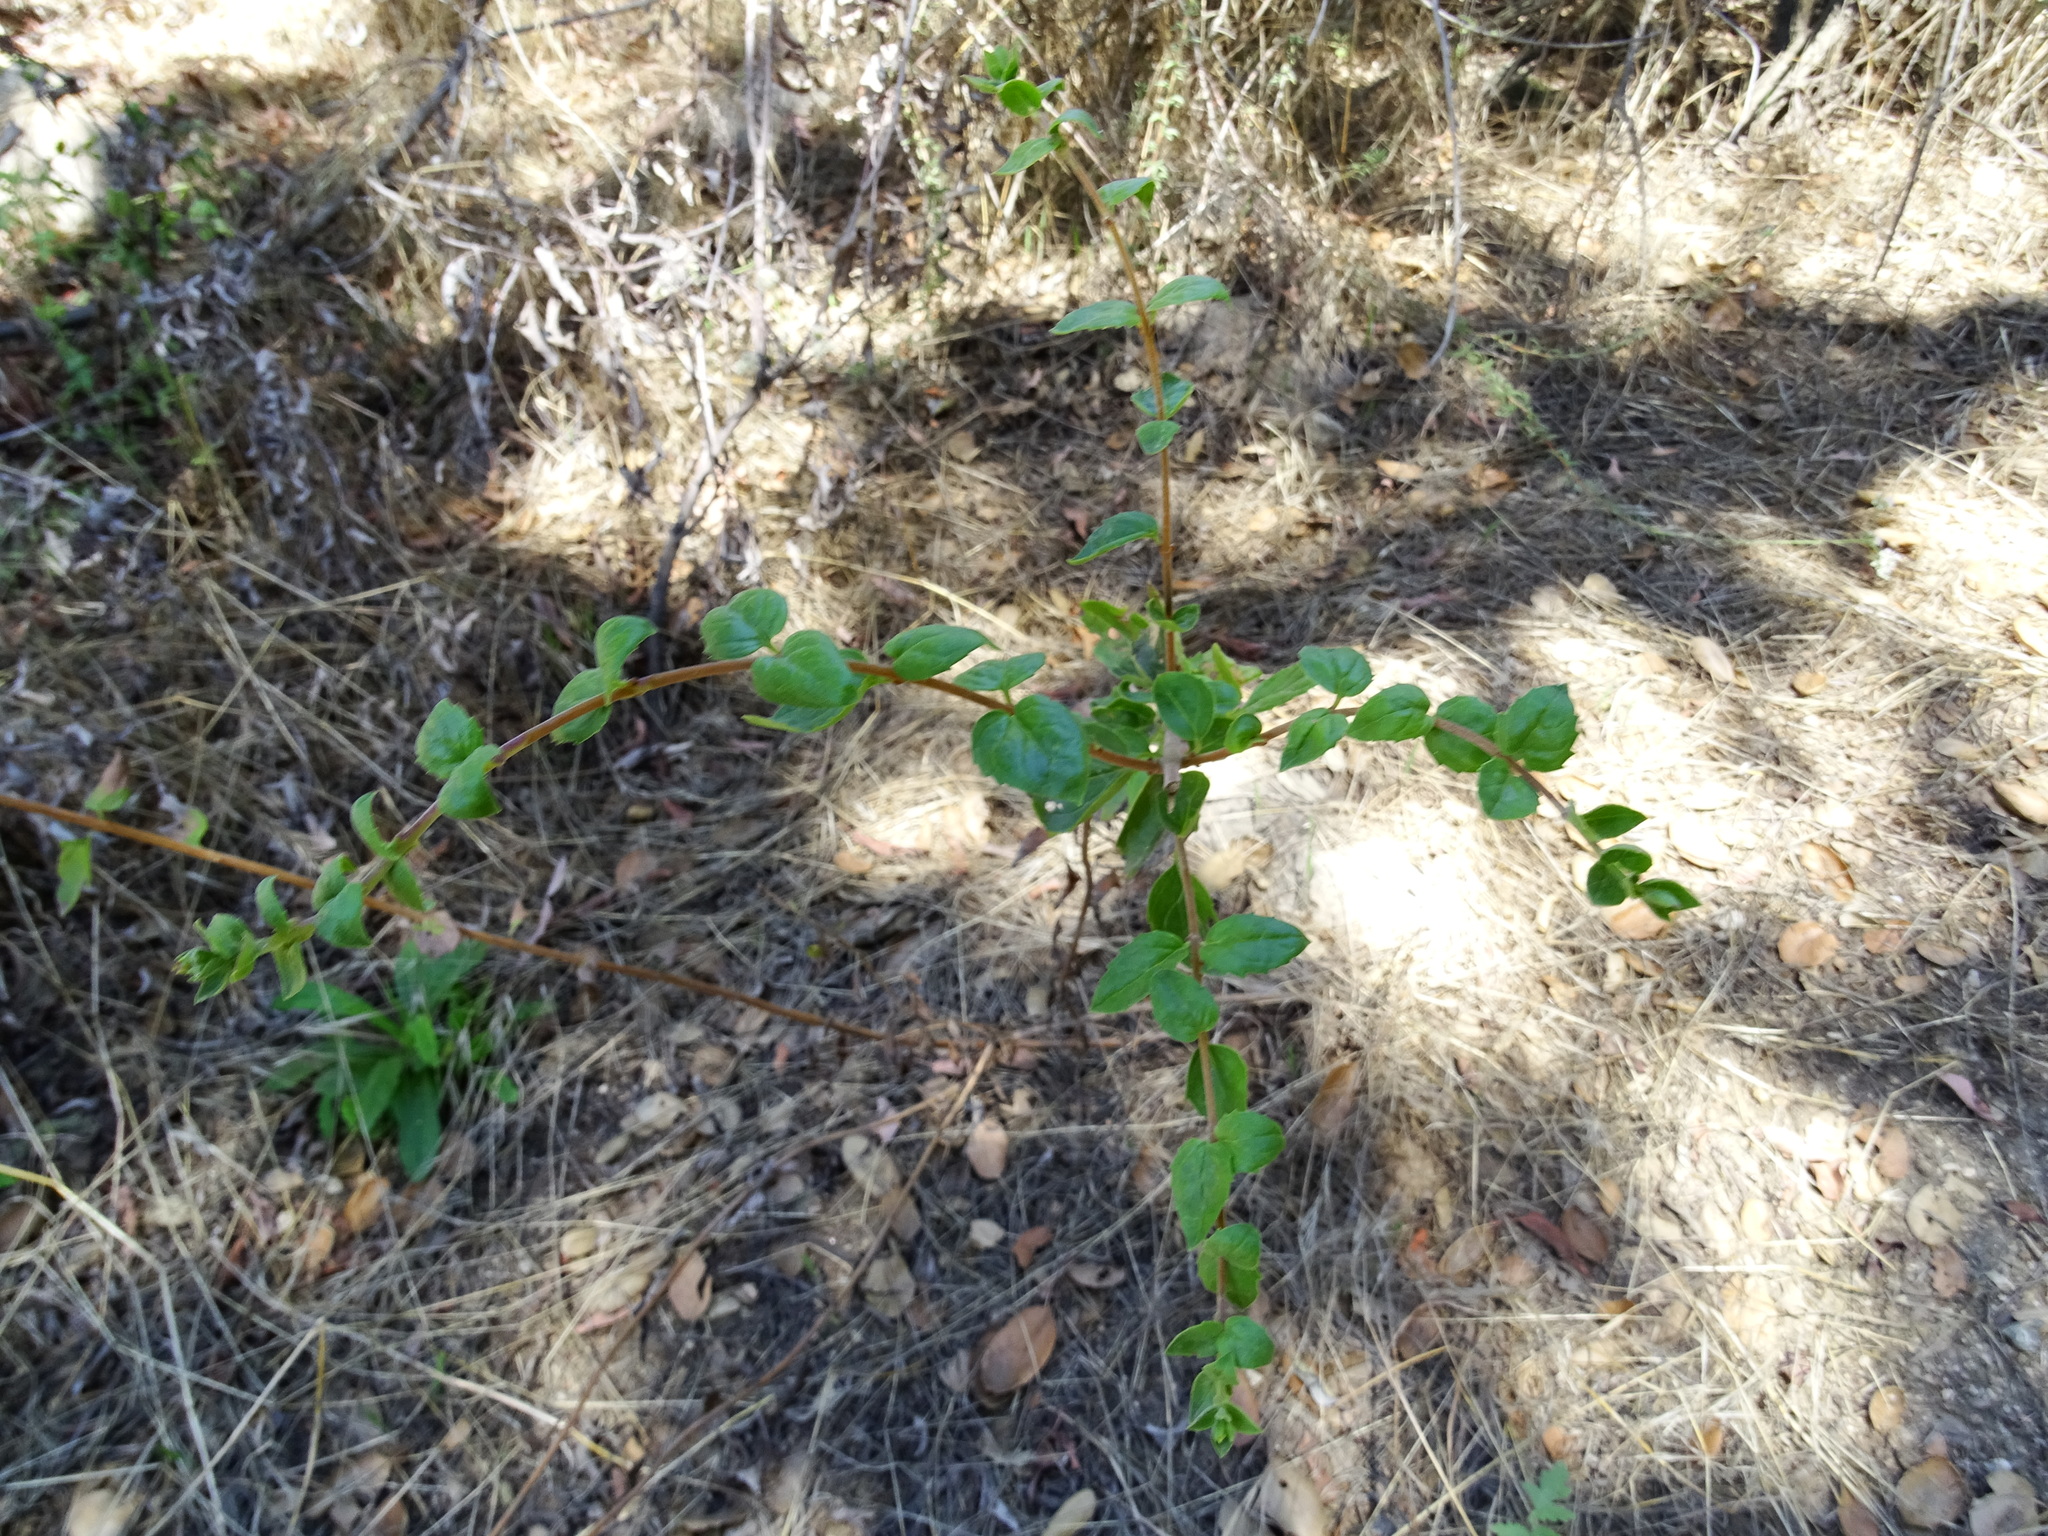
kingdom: Plantae
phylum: Tracheophyta
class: Magnoliopsida
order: Lamiales
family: Plantaginaceae
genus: Keckiella
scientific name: Keckiella cordifolia
